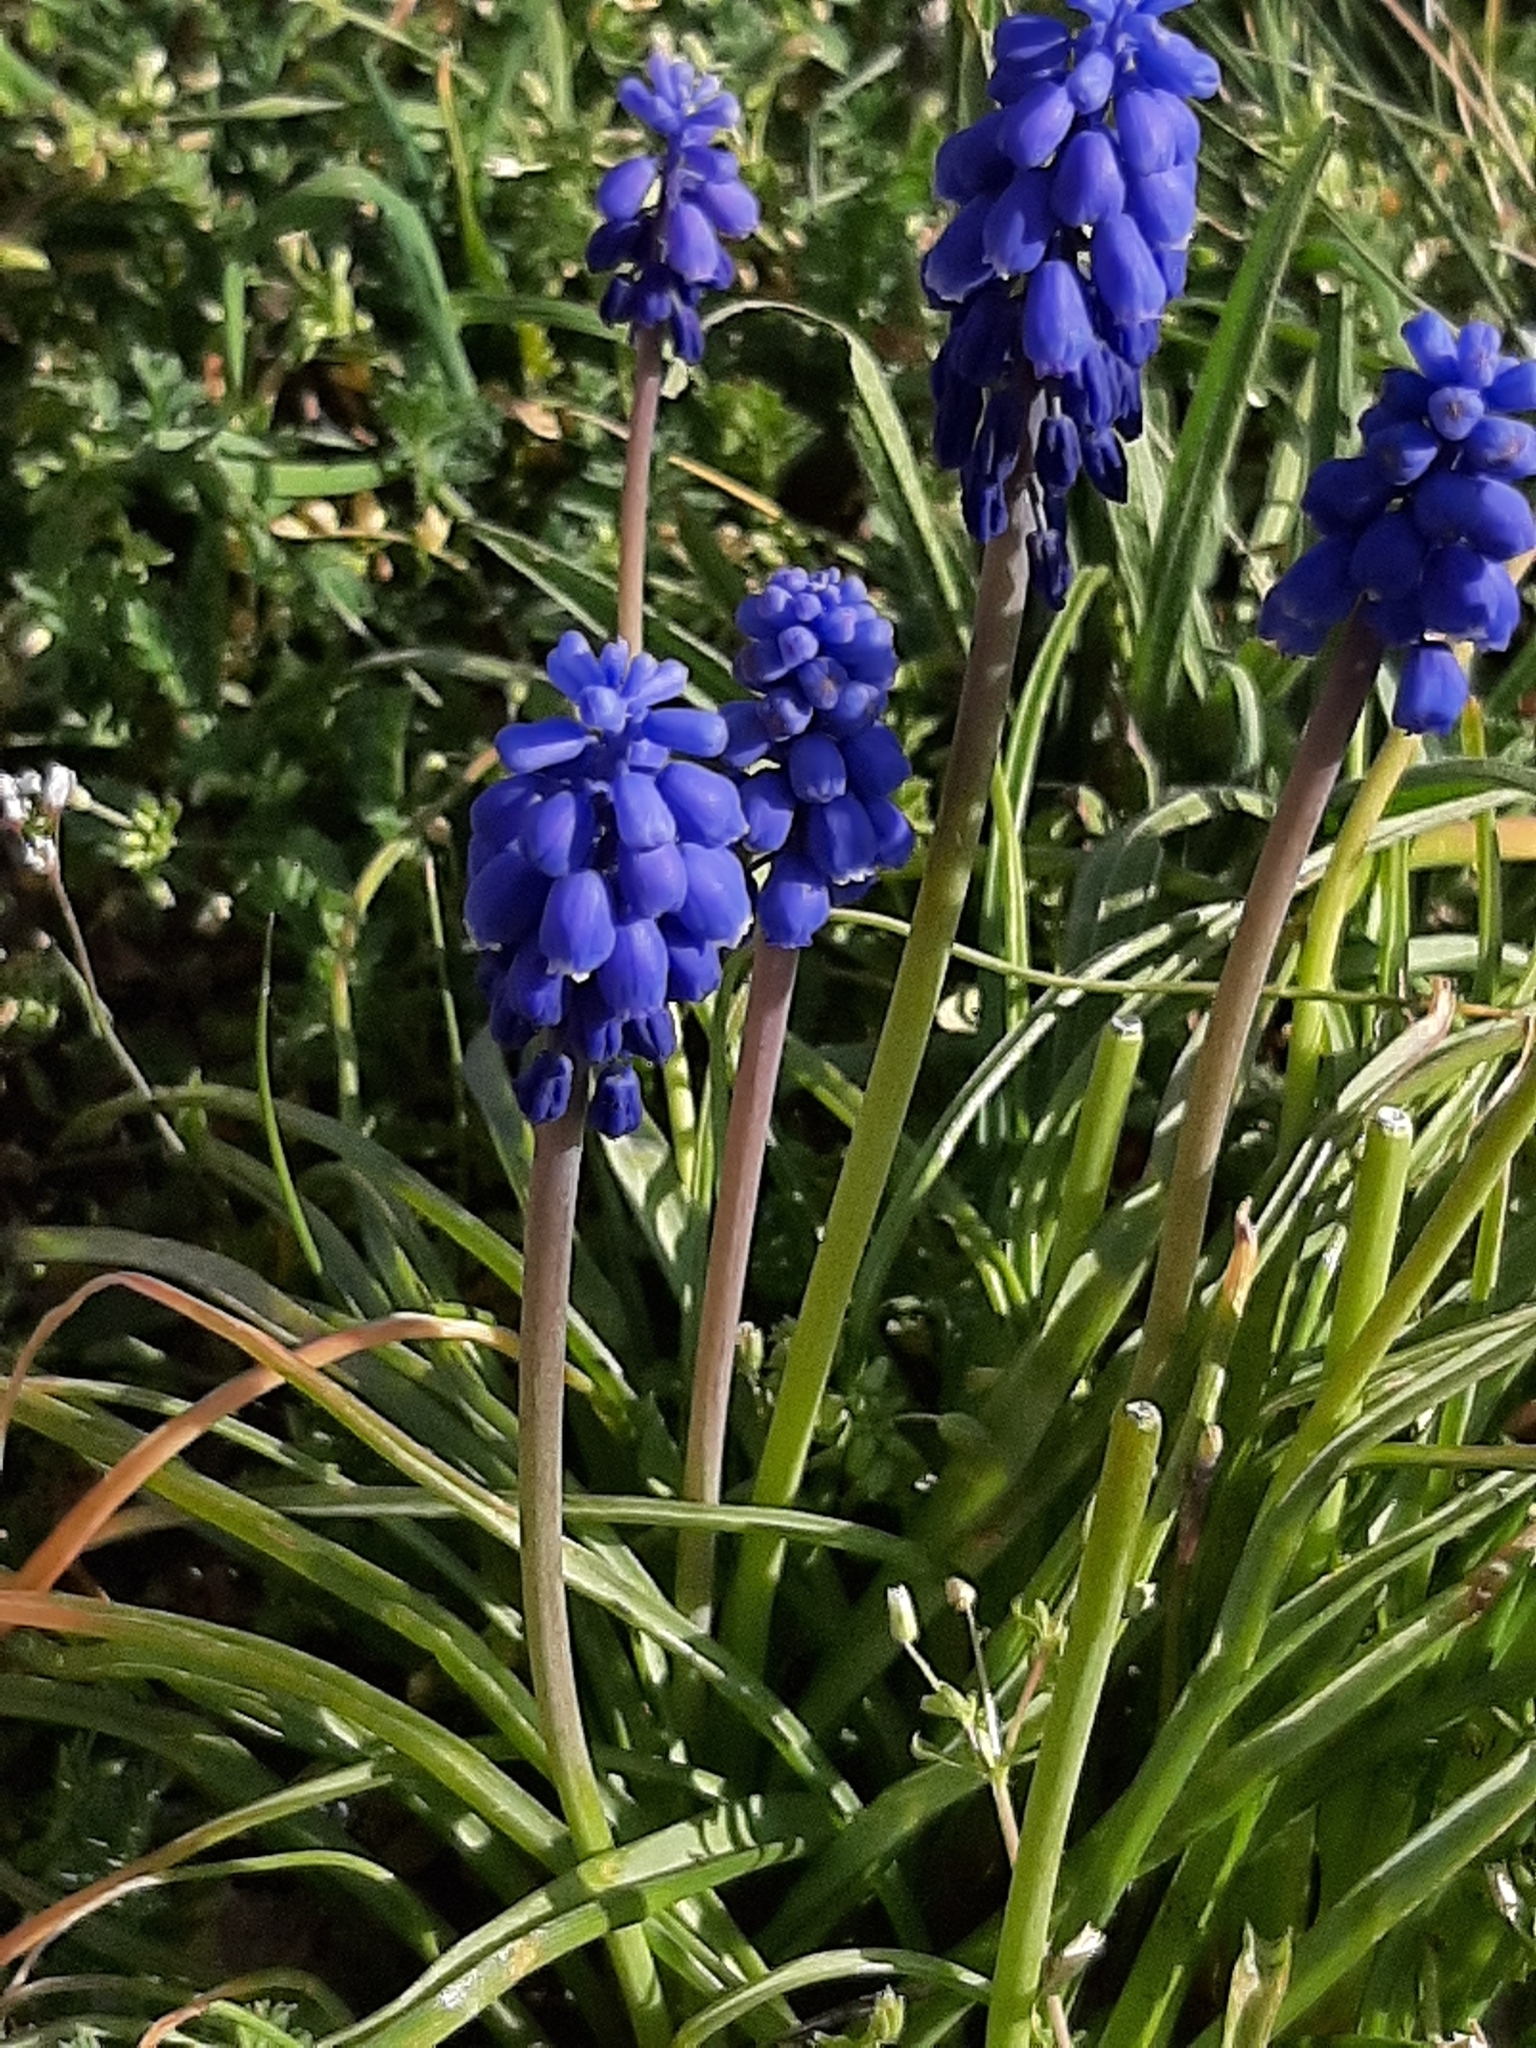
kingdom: Plantae
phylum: Tracheophyta
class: Liliopsida
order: Asparagales
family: Asparagaceae
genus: Muscari
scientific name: Muscari neglectum
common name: Grape-hyacinth
